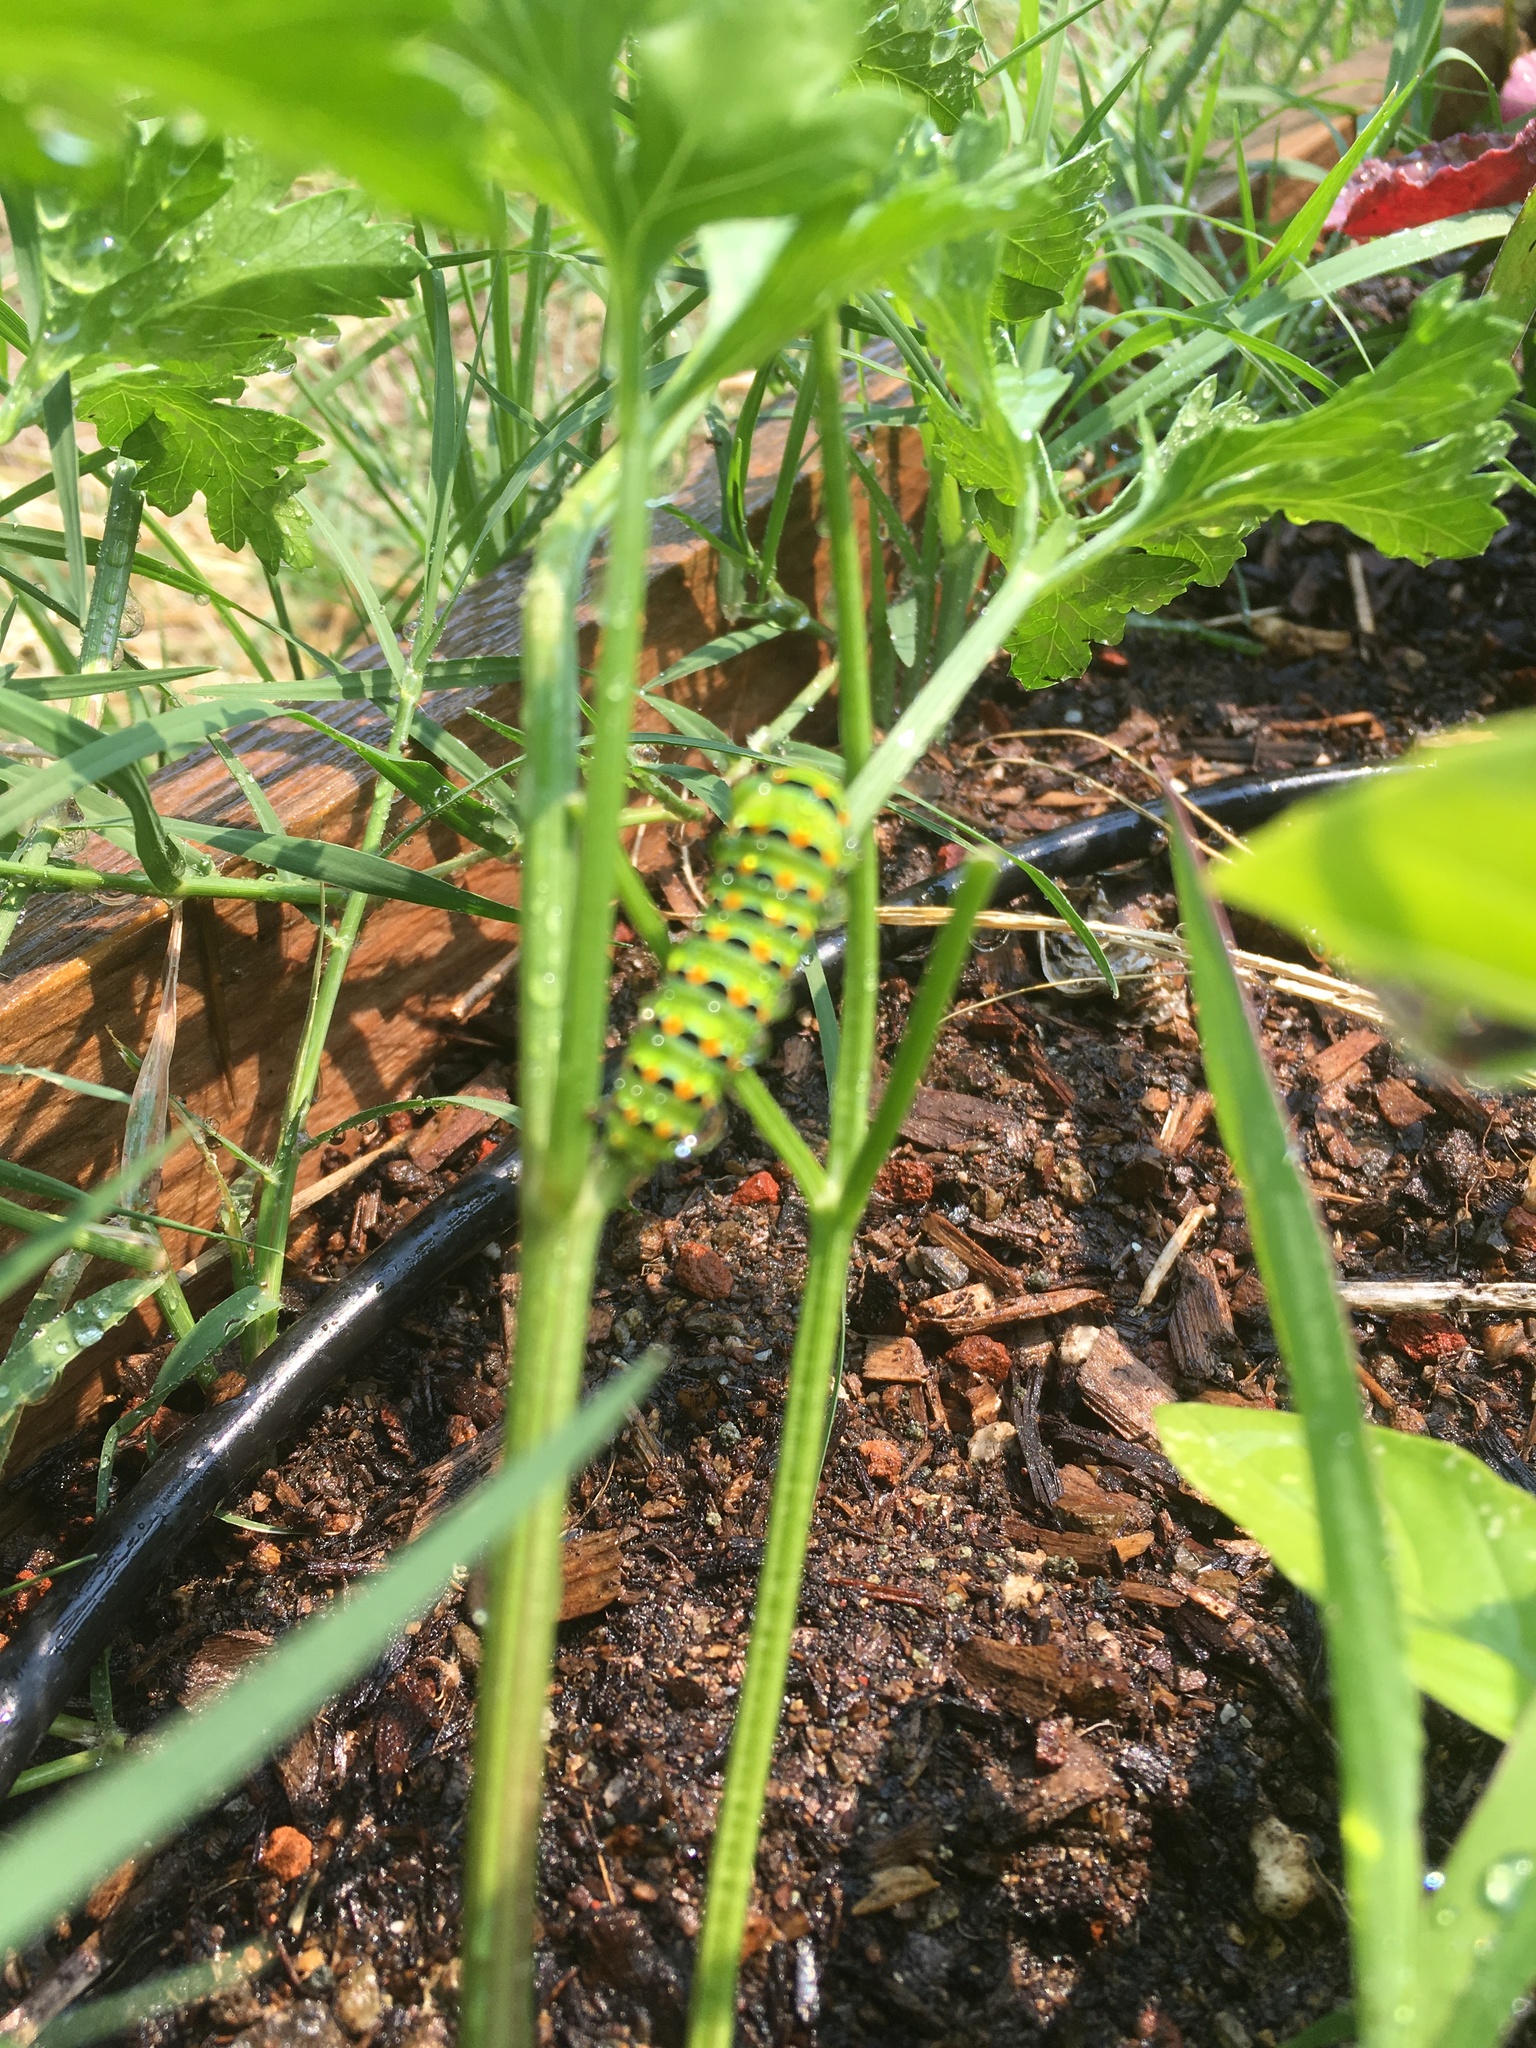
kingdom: Animalia
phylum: Arthropoda
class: Insecta
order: Lepidoptera
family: Papilionidae
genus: Papilio
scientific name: Papilio zelicaon
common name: Anise swallowtail
